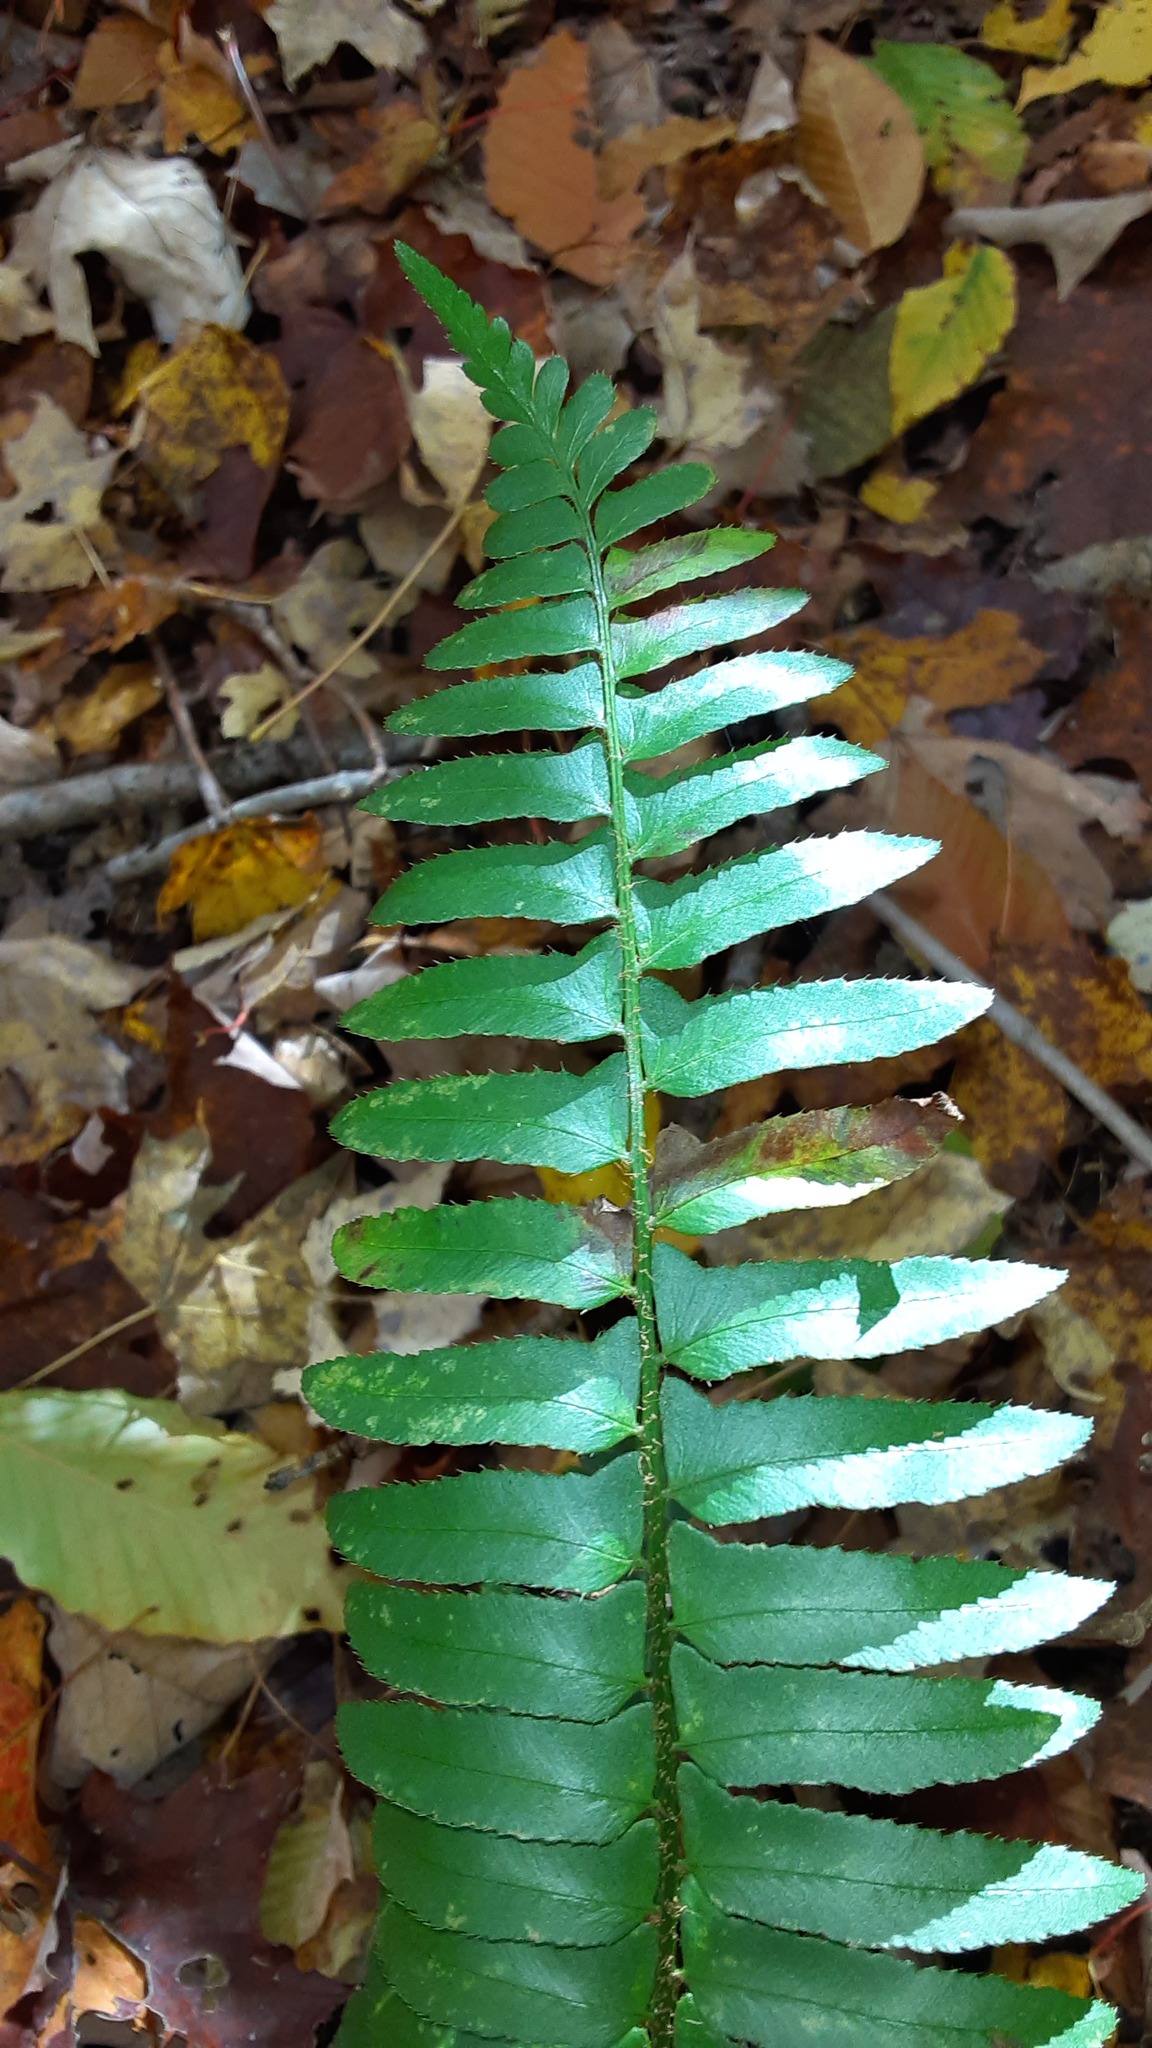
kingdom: Plantae
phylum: Tracheophyta
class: Polypodiopsida
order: Polypodiales
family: Dryopteridaceae
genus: Polystichum
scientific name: Polystichum acrostichoides
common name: Christmas fern
